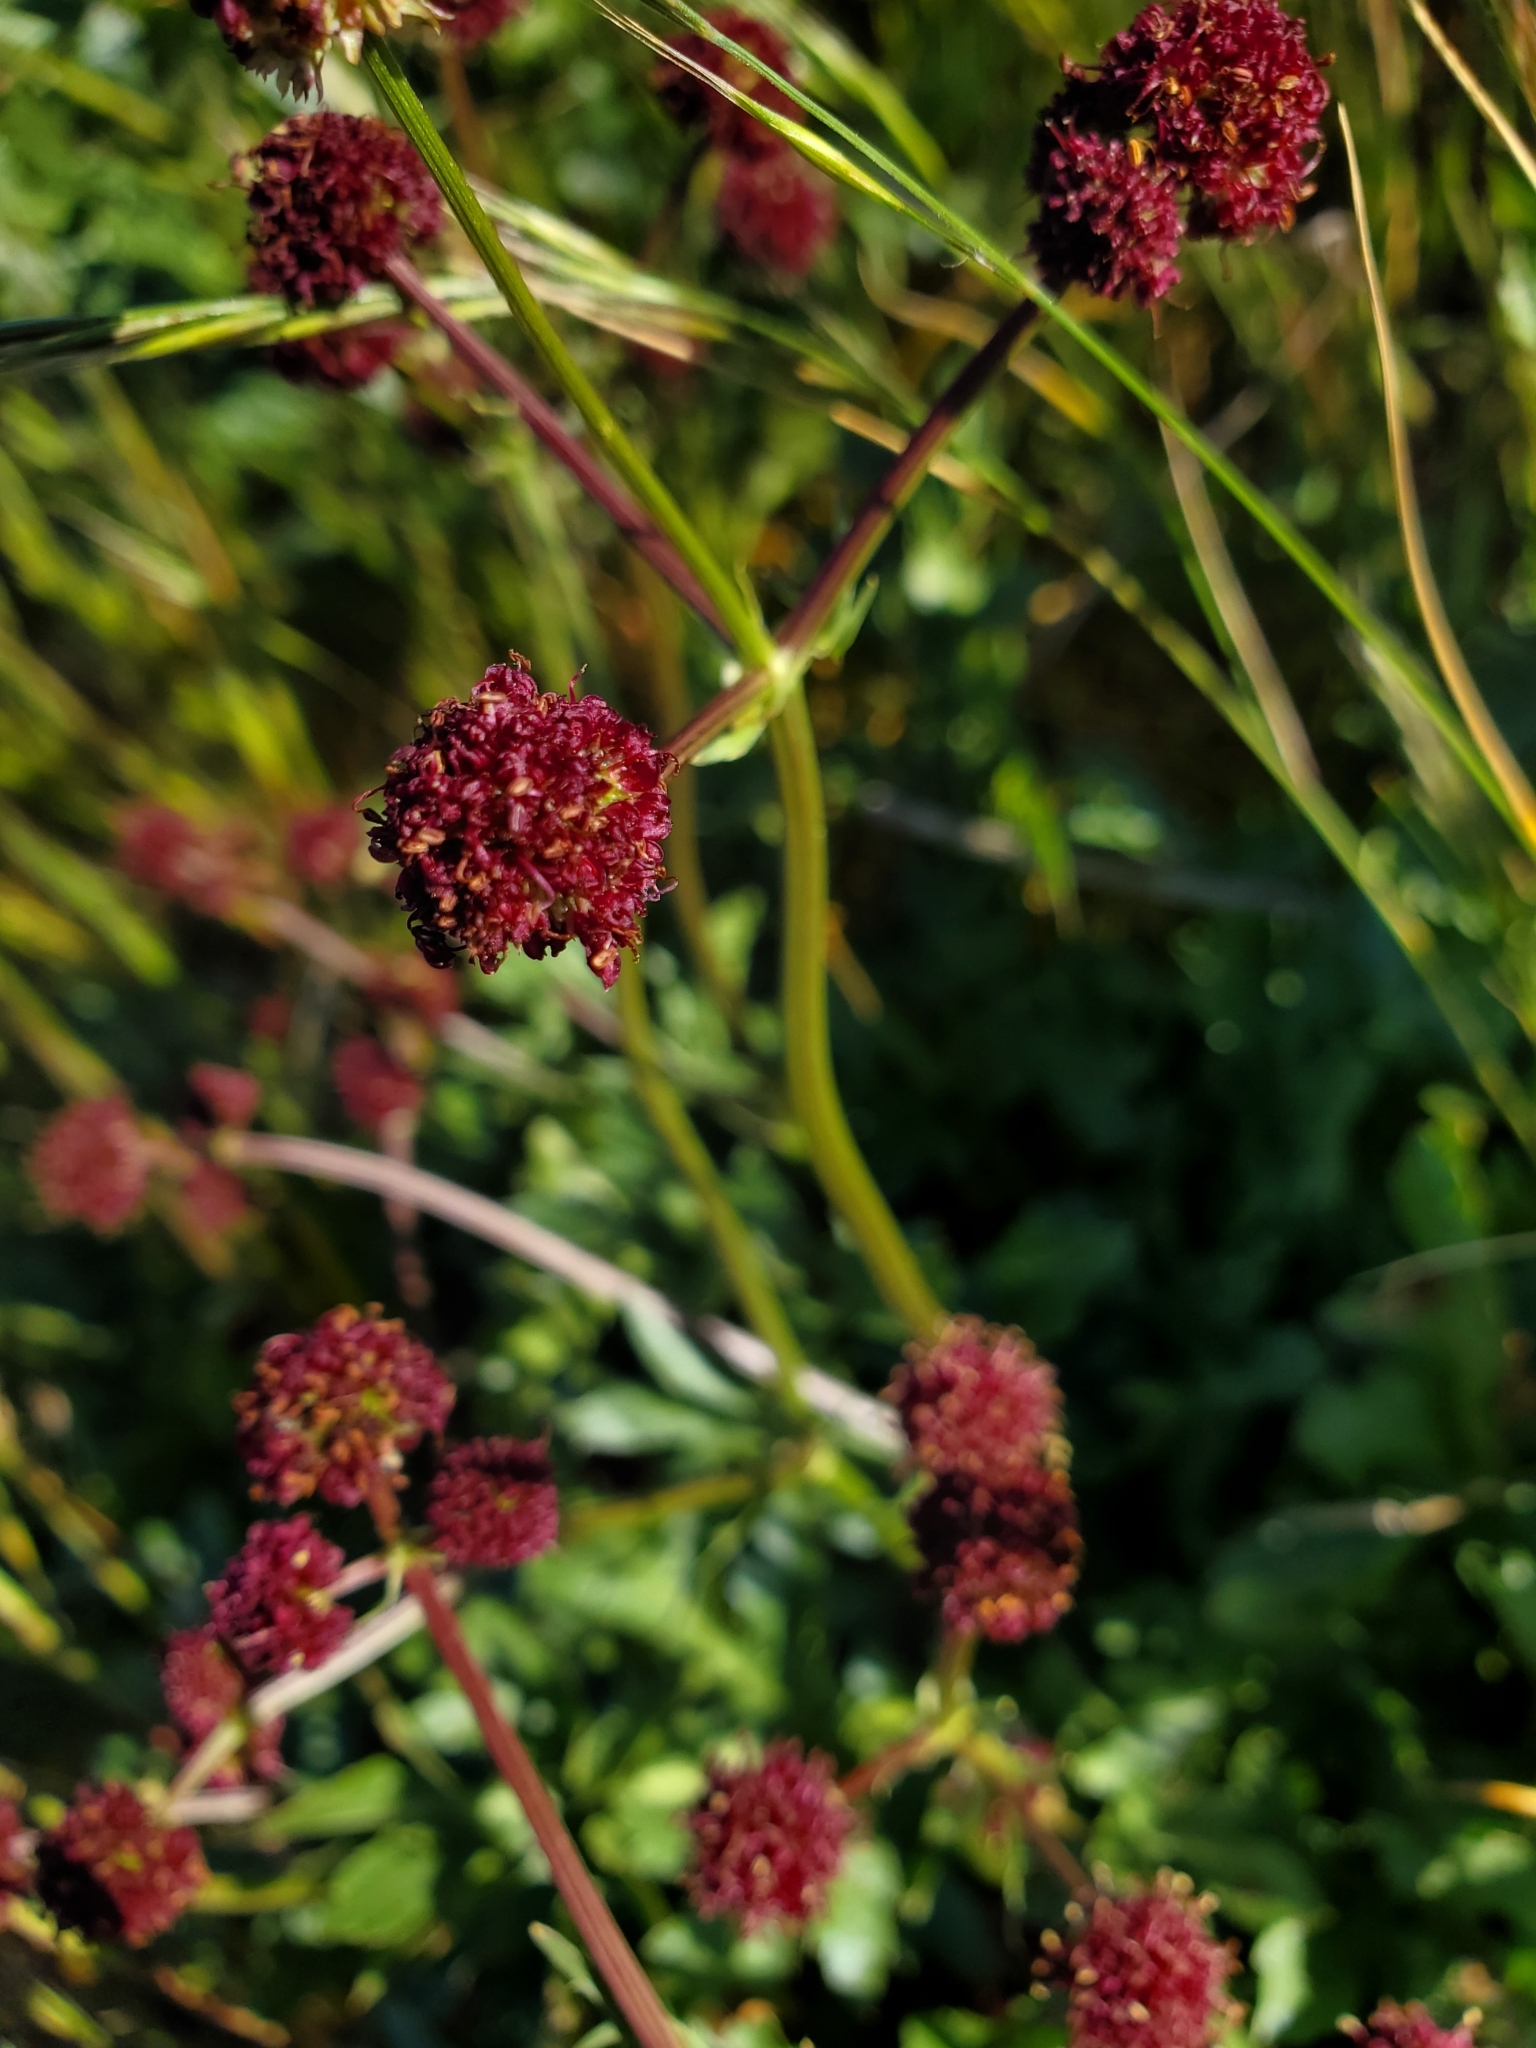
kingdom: Plantae
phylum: Tracheophyta
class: Magnoliopsida
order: Apiales
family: Apiaceae
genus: Sanicula
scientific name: Sanicula bipinnatifida
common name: Shoe-buttons
